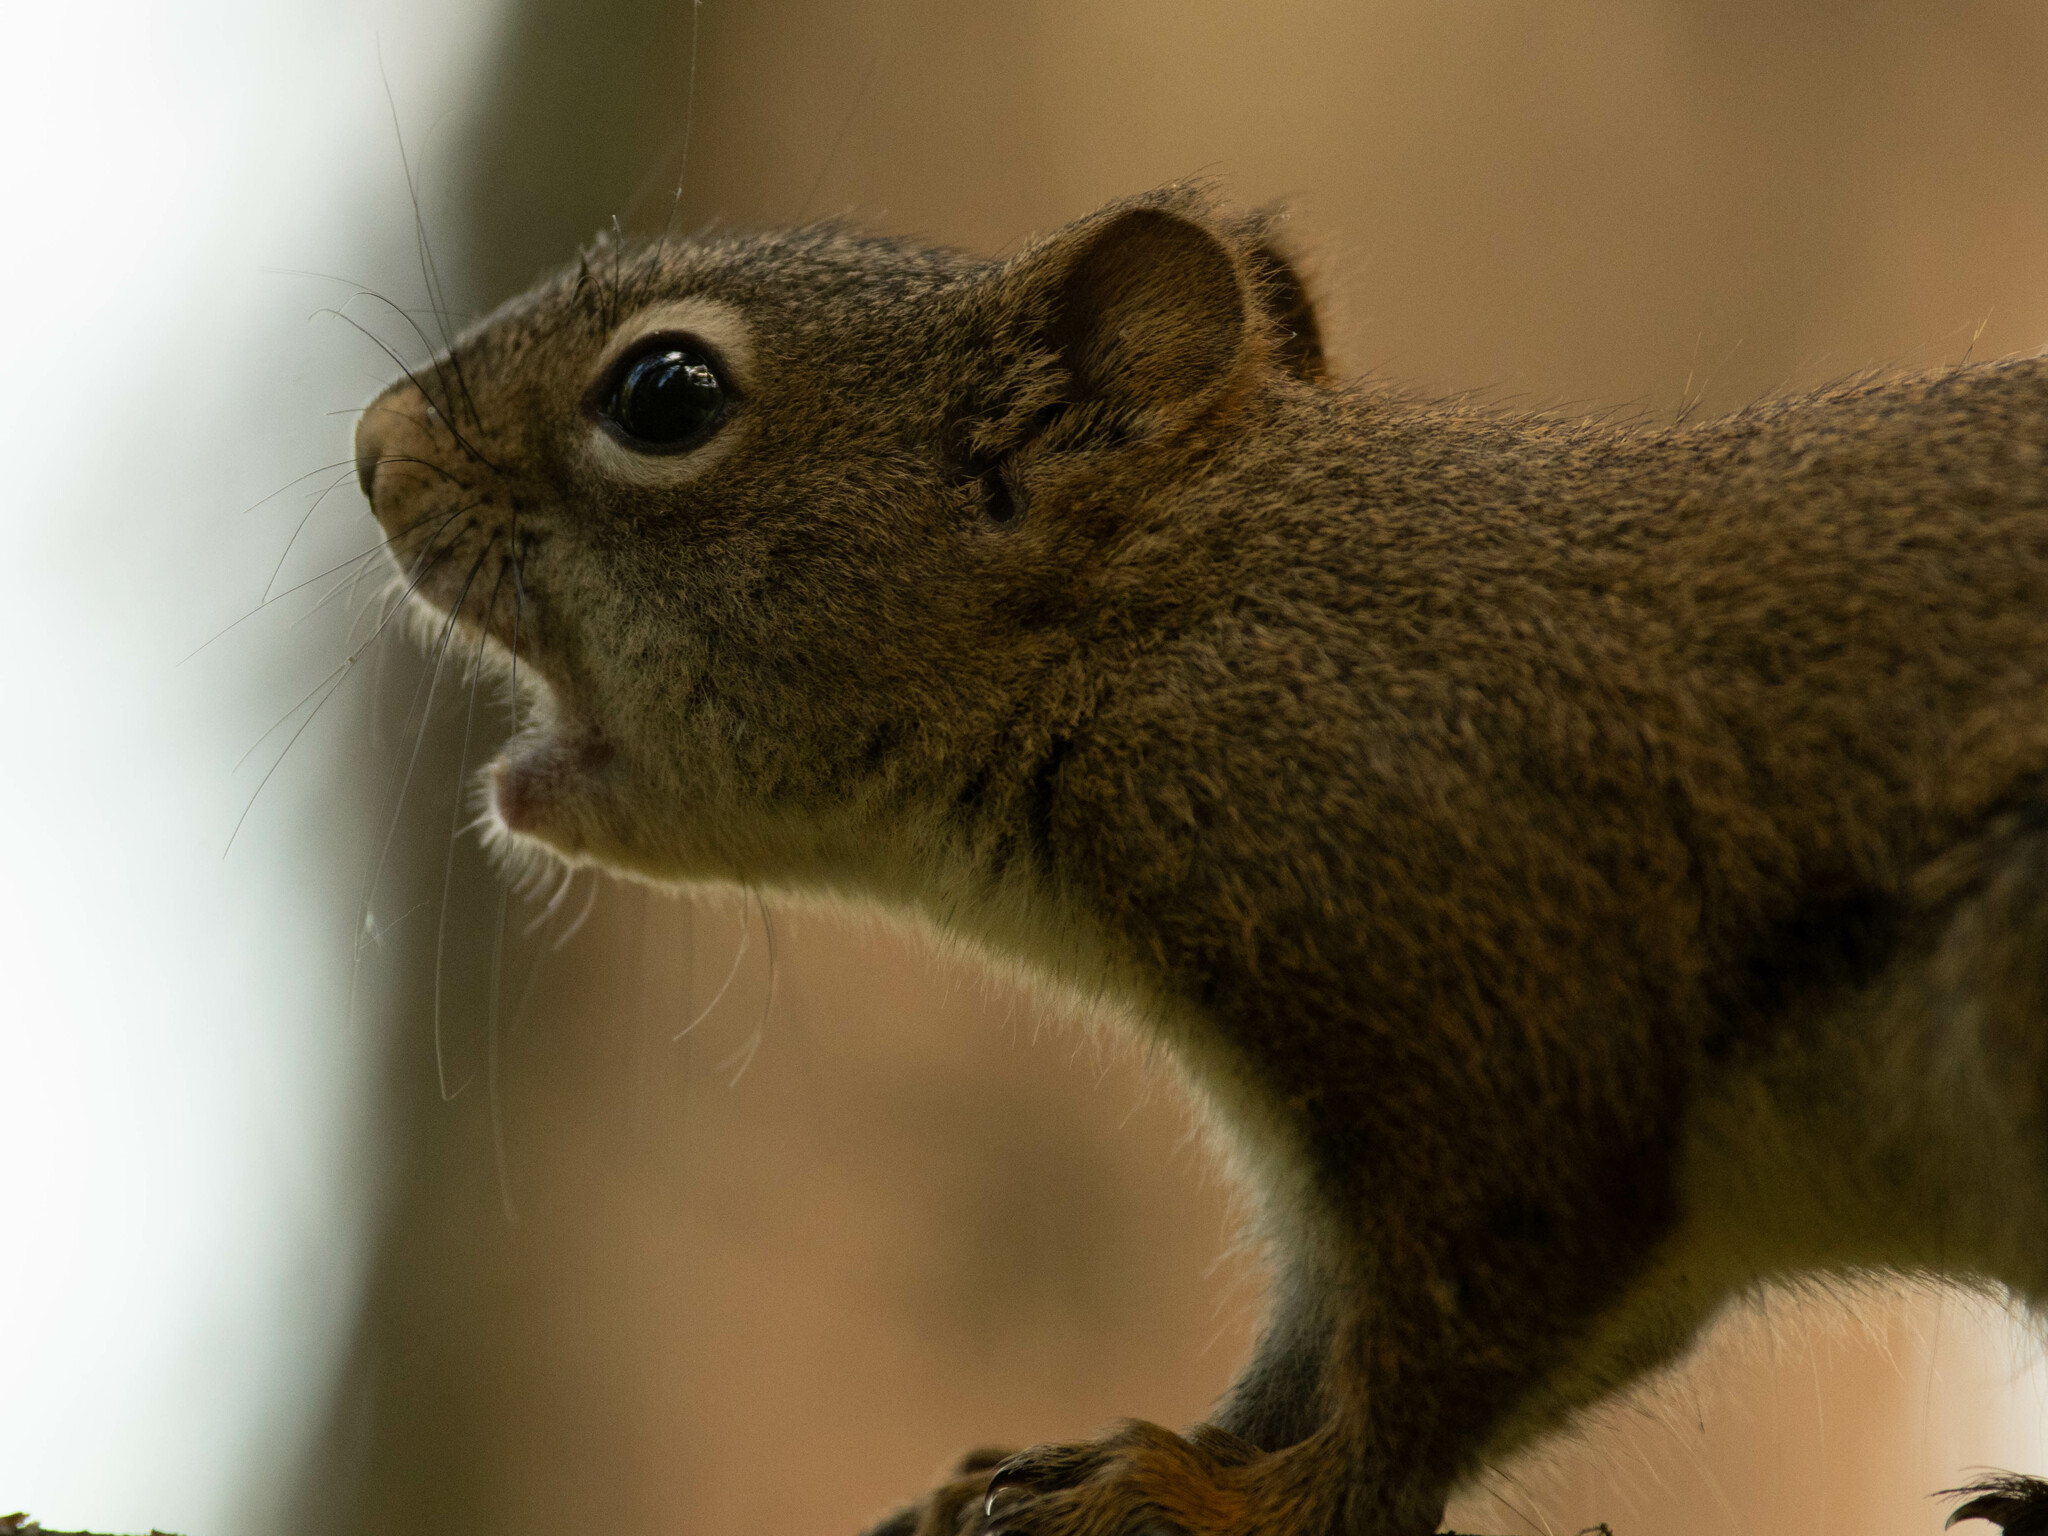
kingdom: Animalia
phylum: Chordata
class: Mammalia
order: Rodentia
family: Sciuridae
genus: Tamiasciurus
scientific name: Tamiasciurus hudsonicus
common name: Red squirrel
